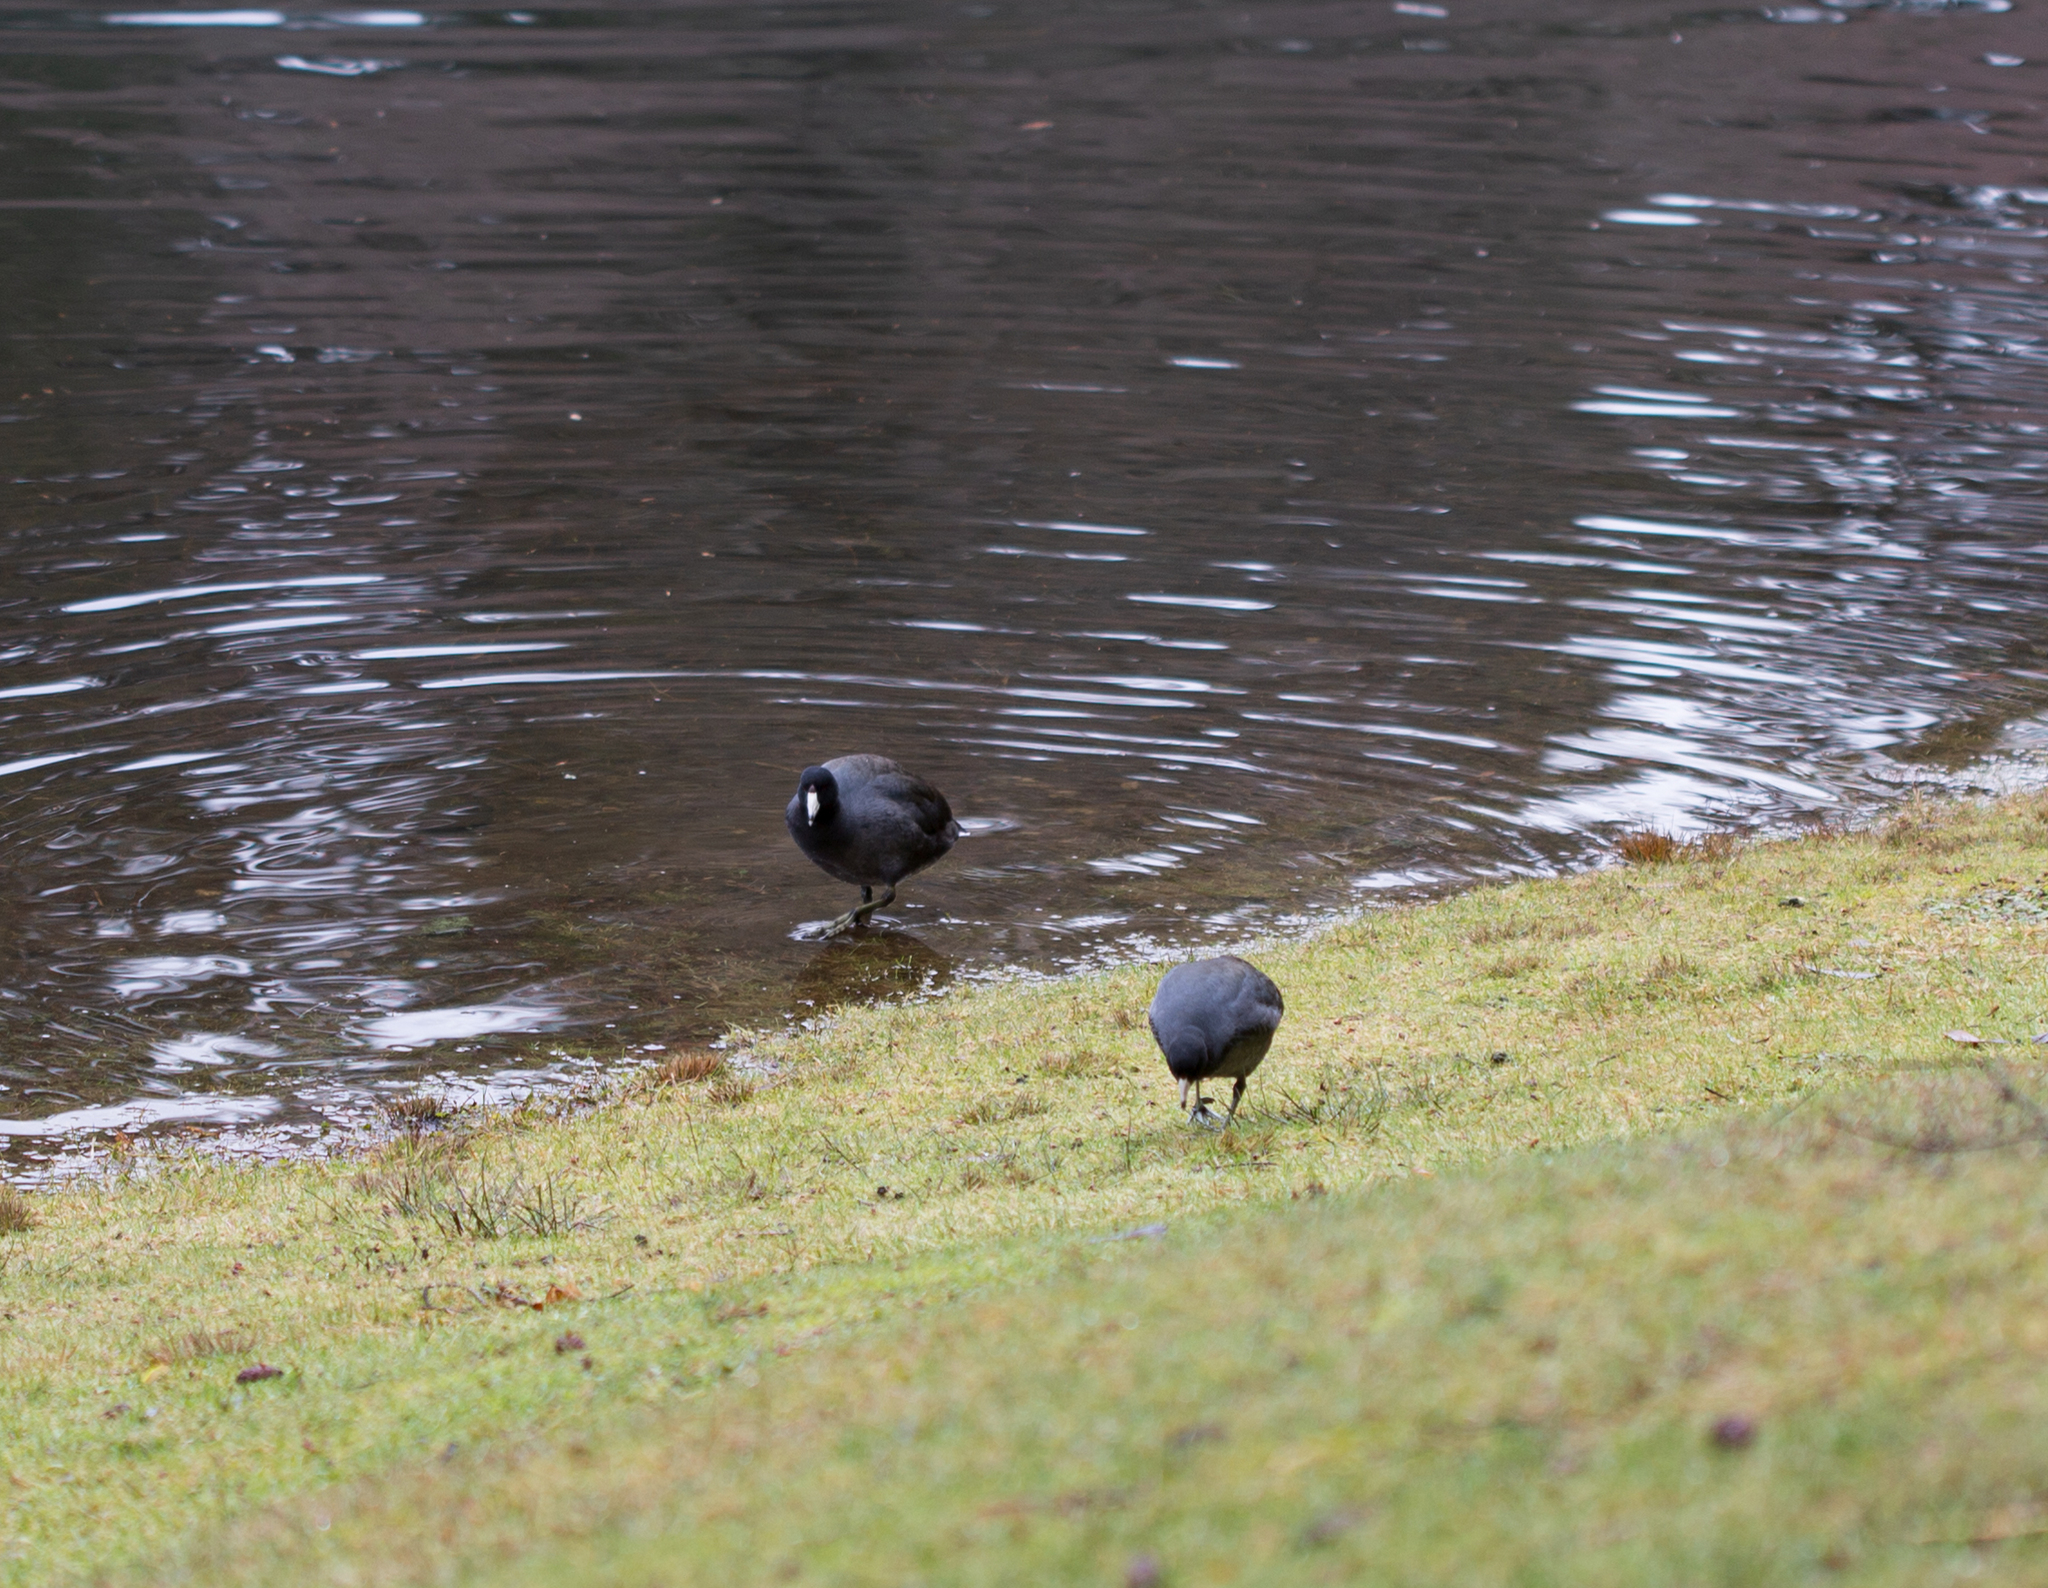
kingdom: Animalia
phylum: Chordata
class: Aves
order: Gruiformes
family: Rallidae
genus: Fulica
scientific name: Fulica americana
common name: American coot
